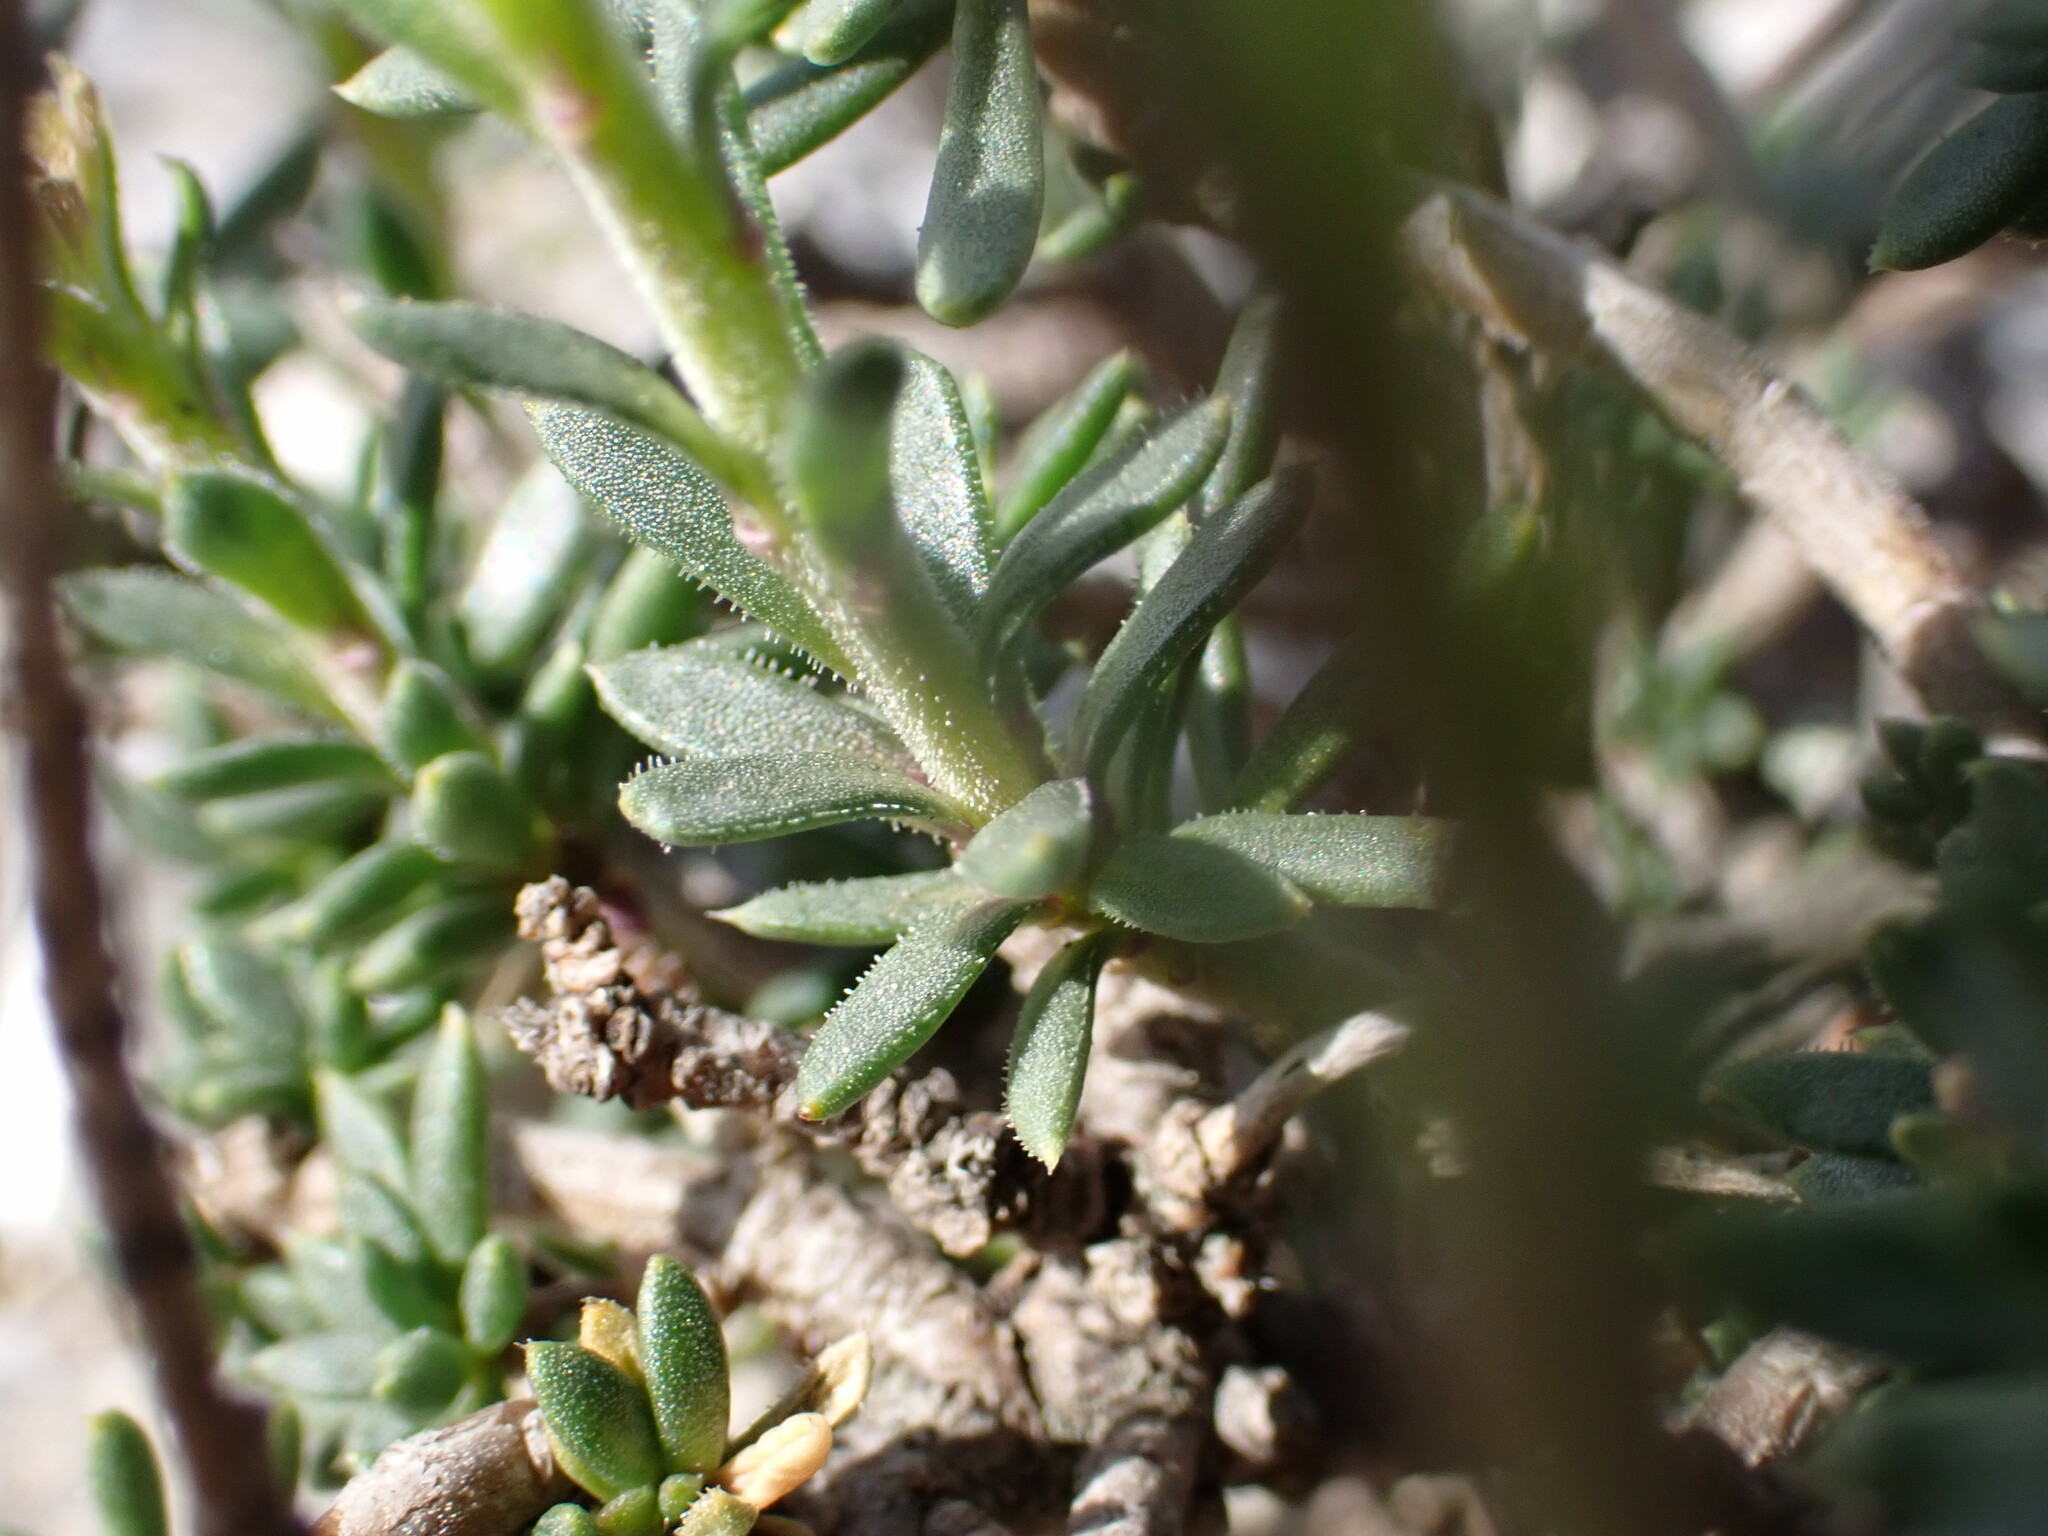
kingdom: Plantae
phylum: Tracheophyta
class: Magnoliopsida
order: Brassicales
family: Brassicaceae
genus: Iberis
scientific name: Iberis saxatilis
